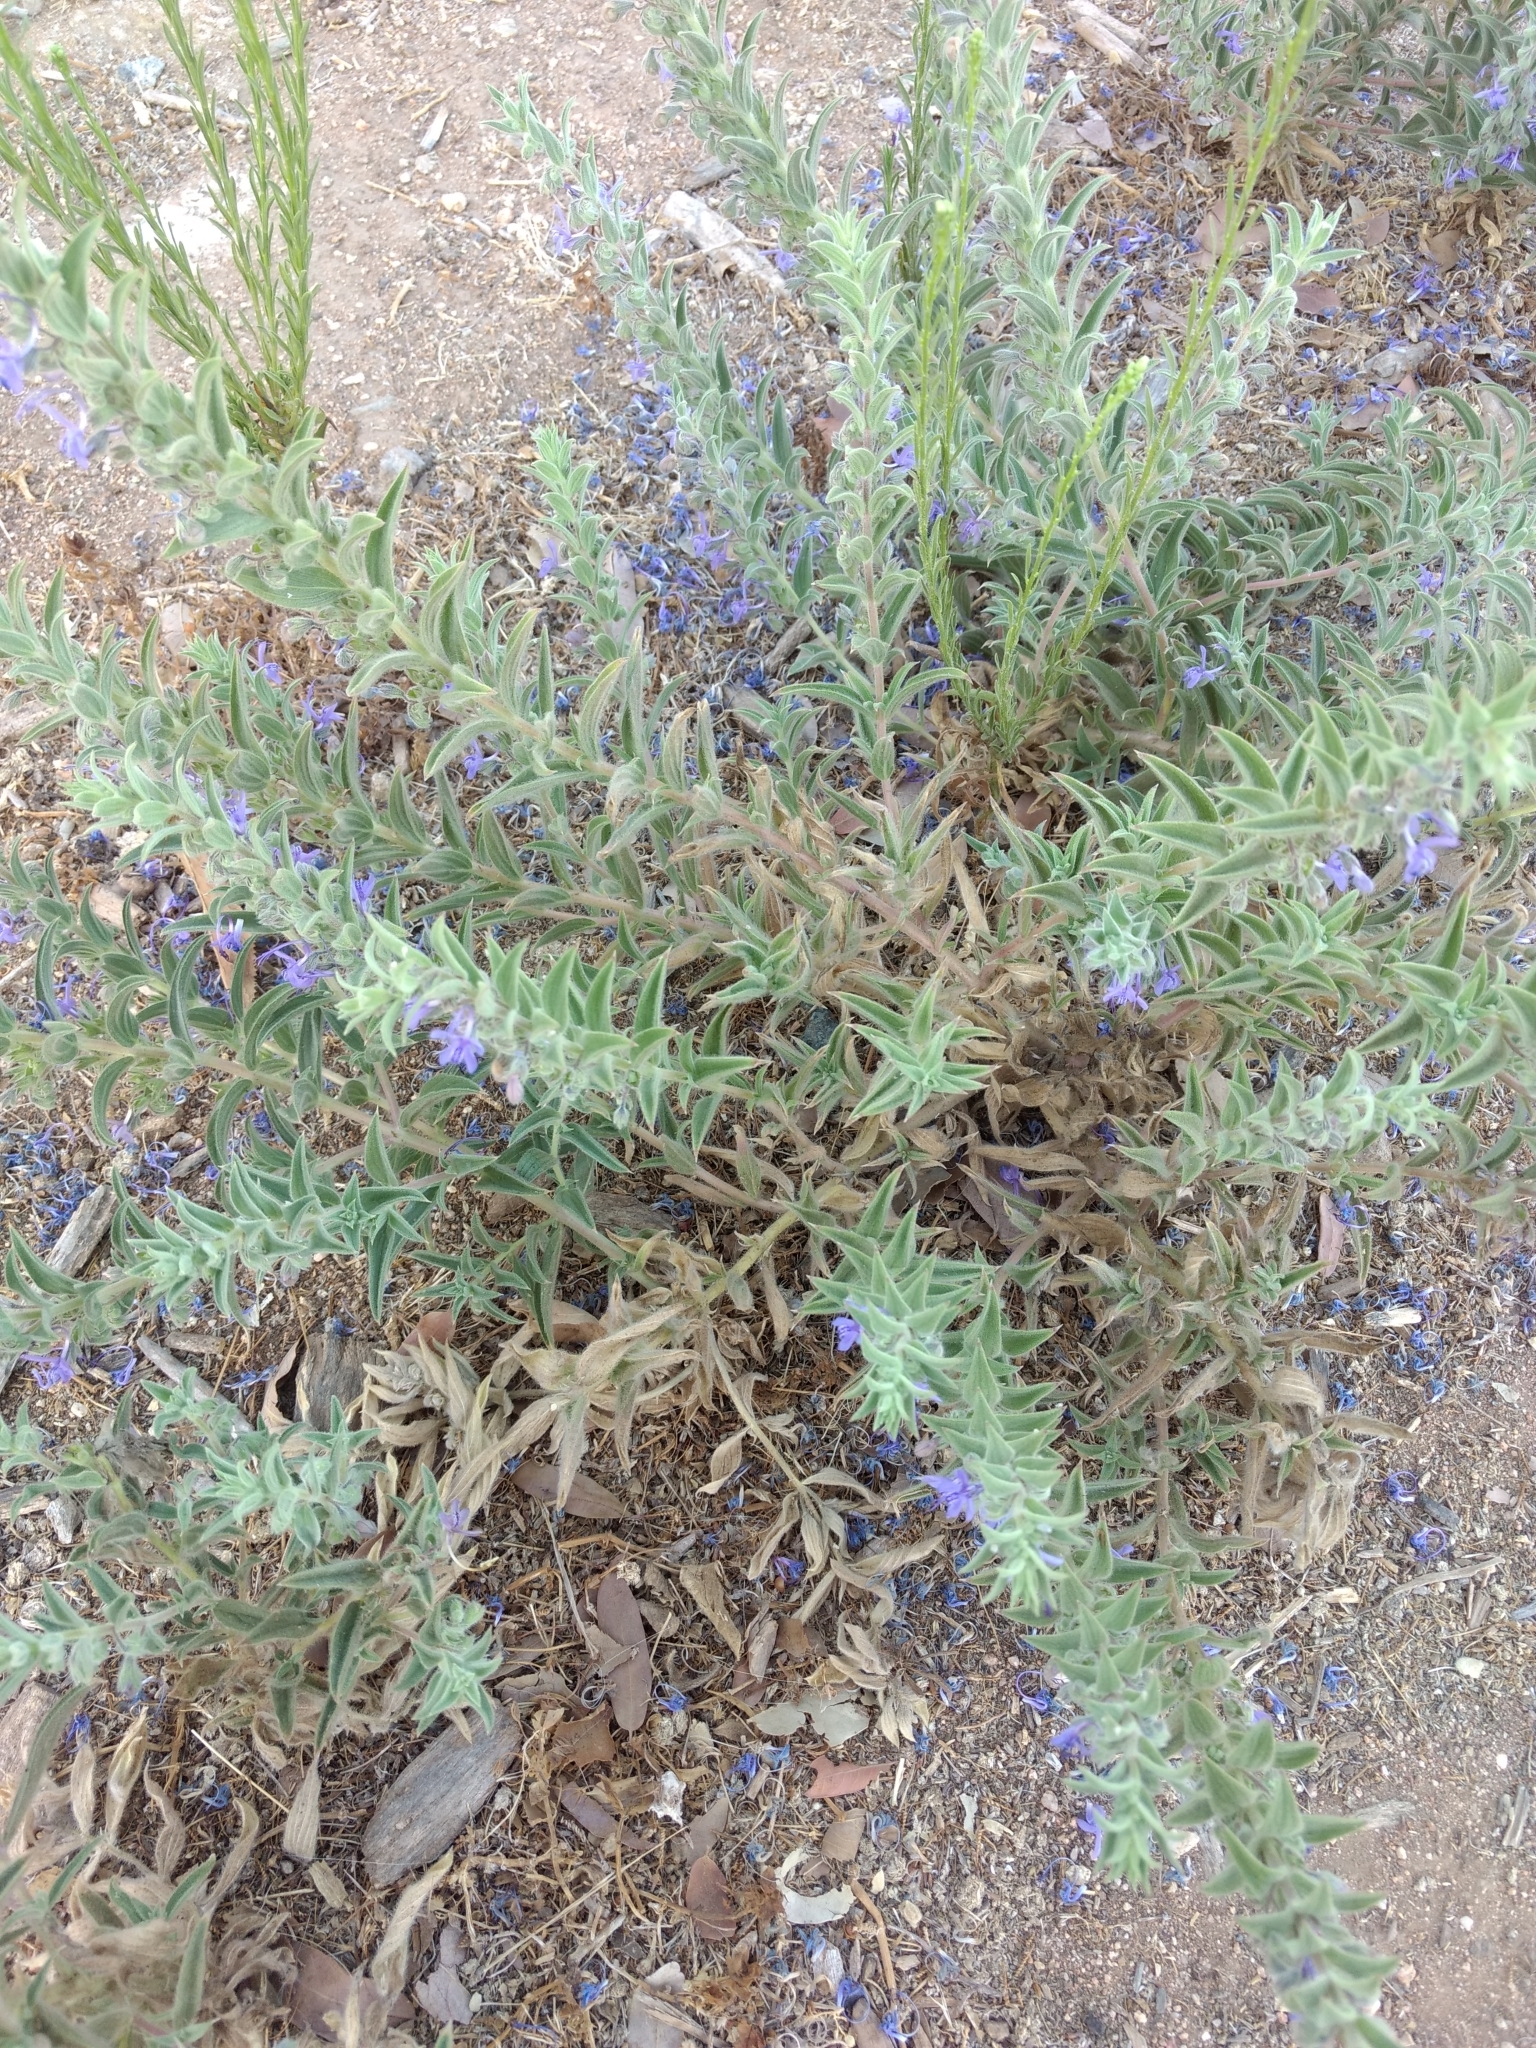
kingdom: Plantae
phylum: Tracheophyta
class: Magnoliopsida
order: Lamiales
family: Lamiaceae
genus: Trichostema
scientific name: Trichostema lanceolatum
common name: Vinegar-weed
